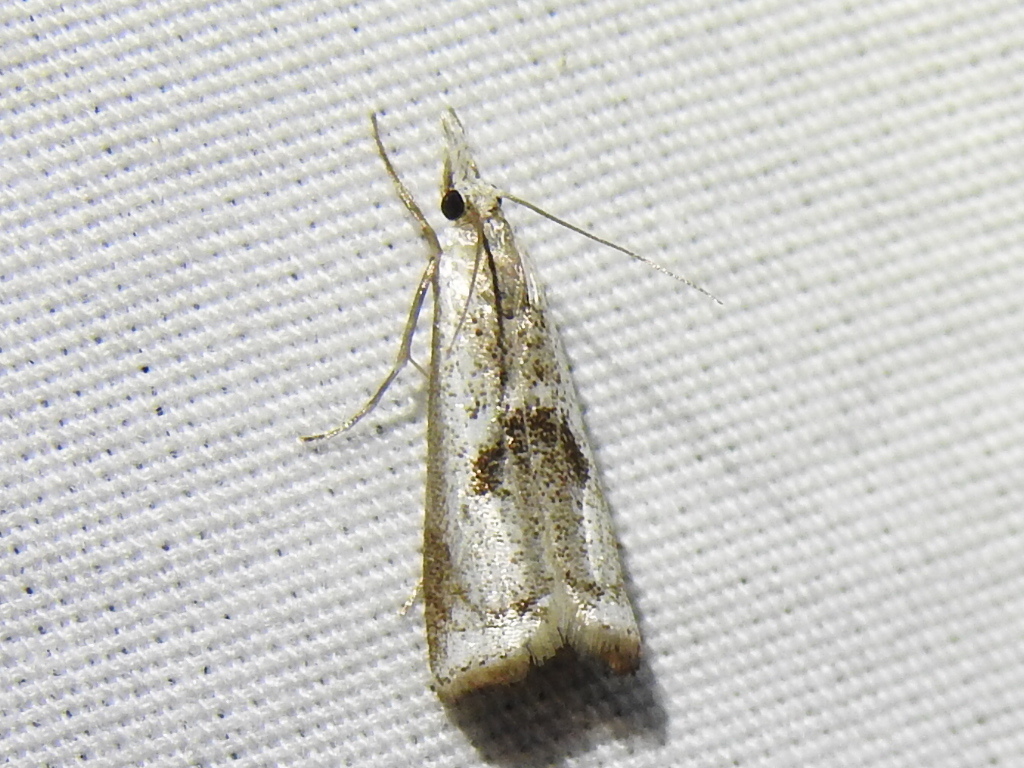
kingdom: Animalia
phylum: Arthropoda
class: Insecta
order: Lepidoptera
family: Crambidae
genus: Microcrambus
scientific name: Microcrambus croesus
